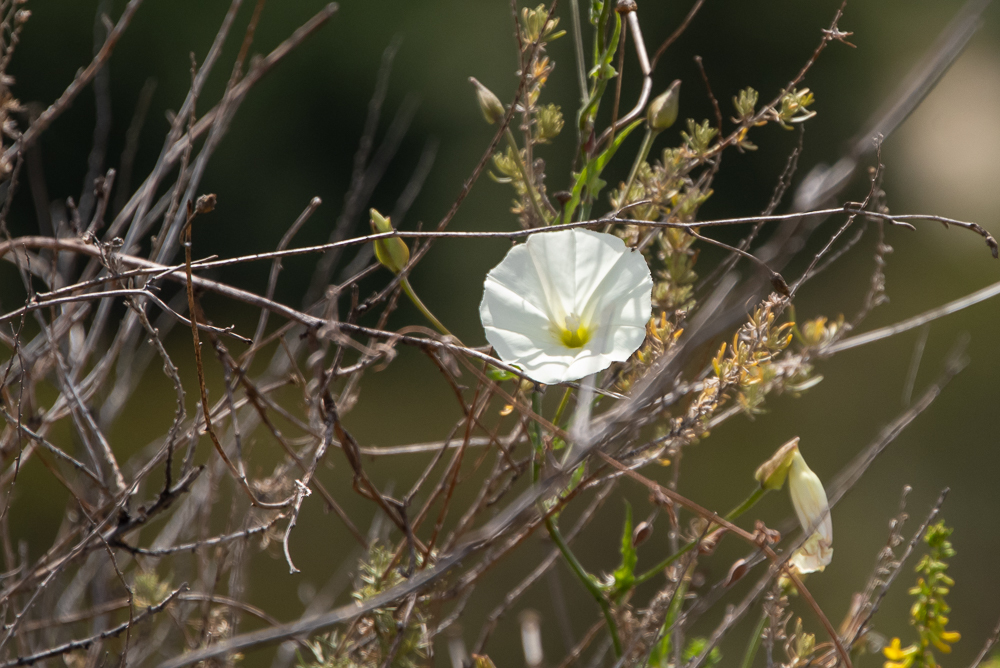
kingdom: Plantae
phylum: Tracheophyta
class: Magnoliopsida
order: Solanales
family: Convolvulaceae
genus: Calystegia
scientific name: Calystegia macrostegia
